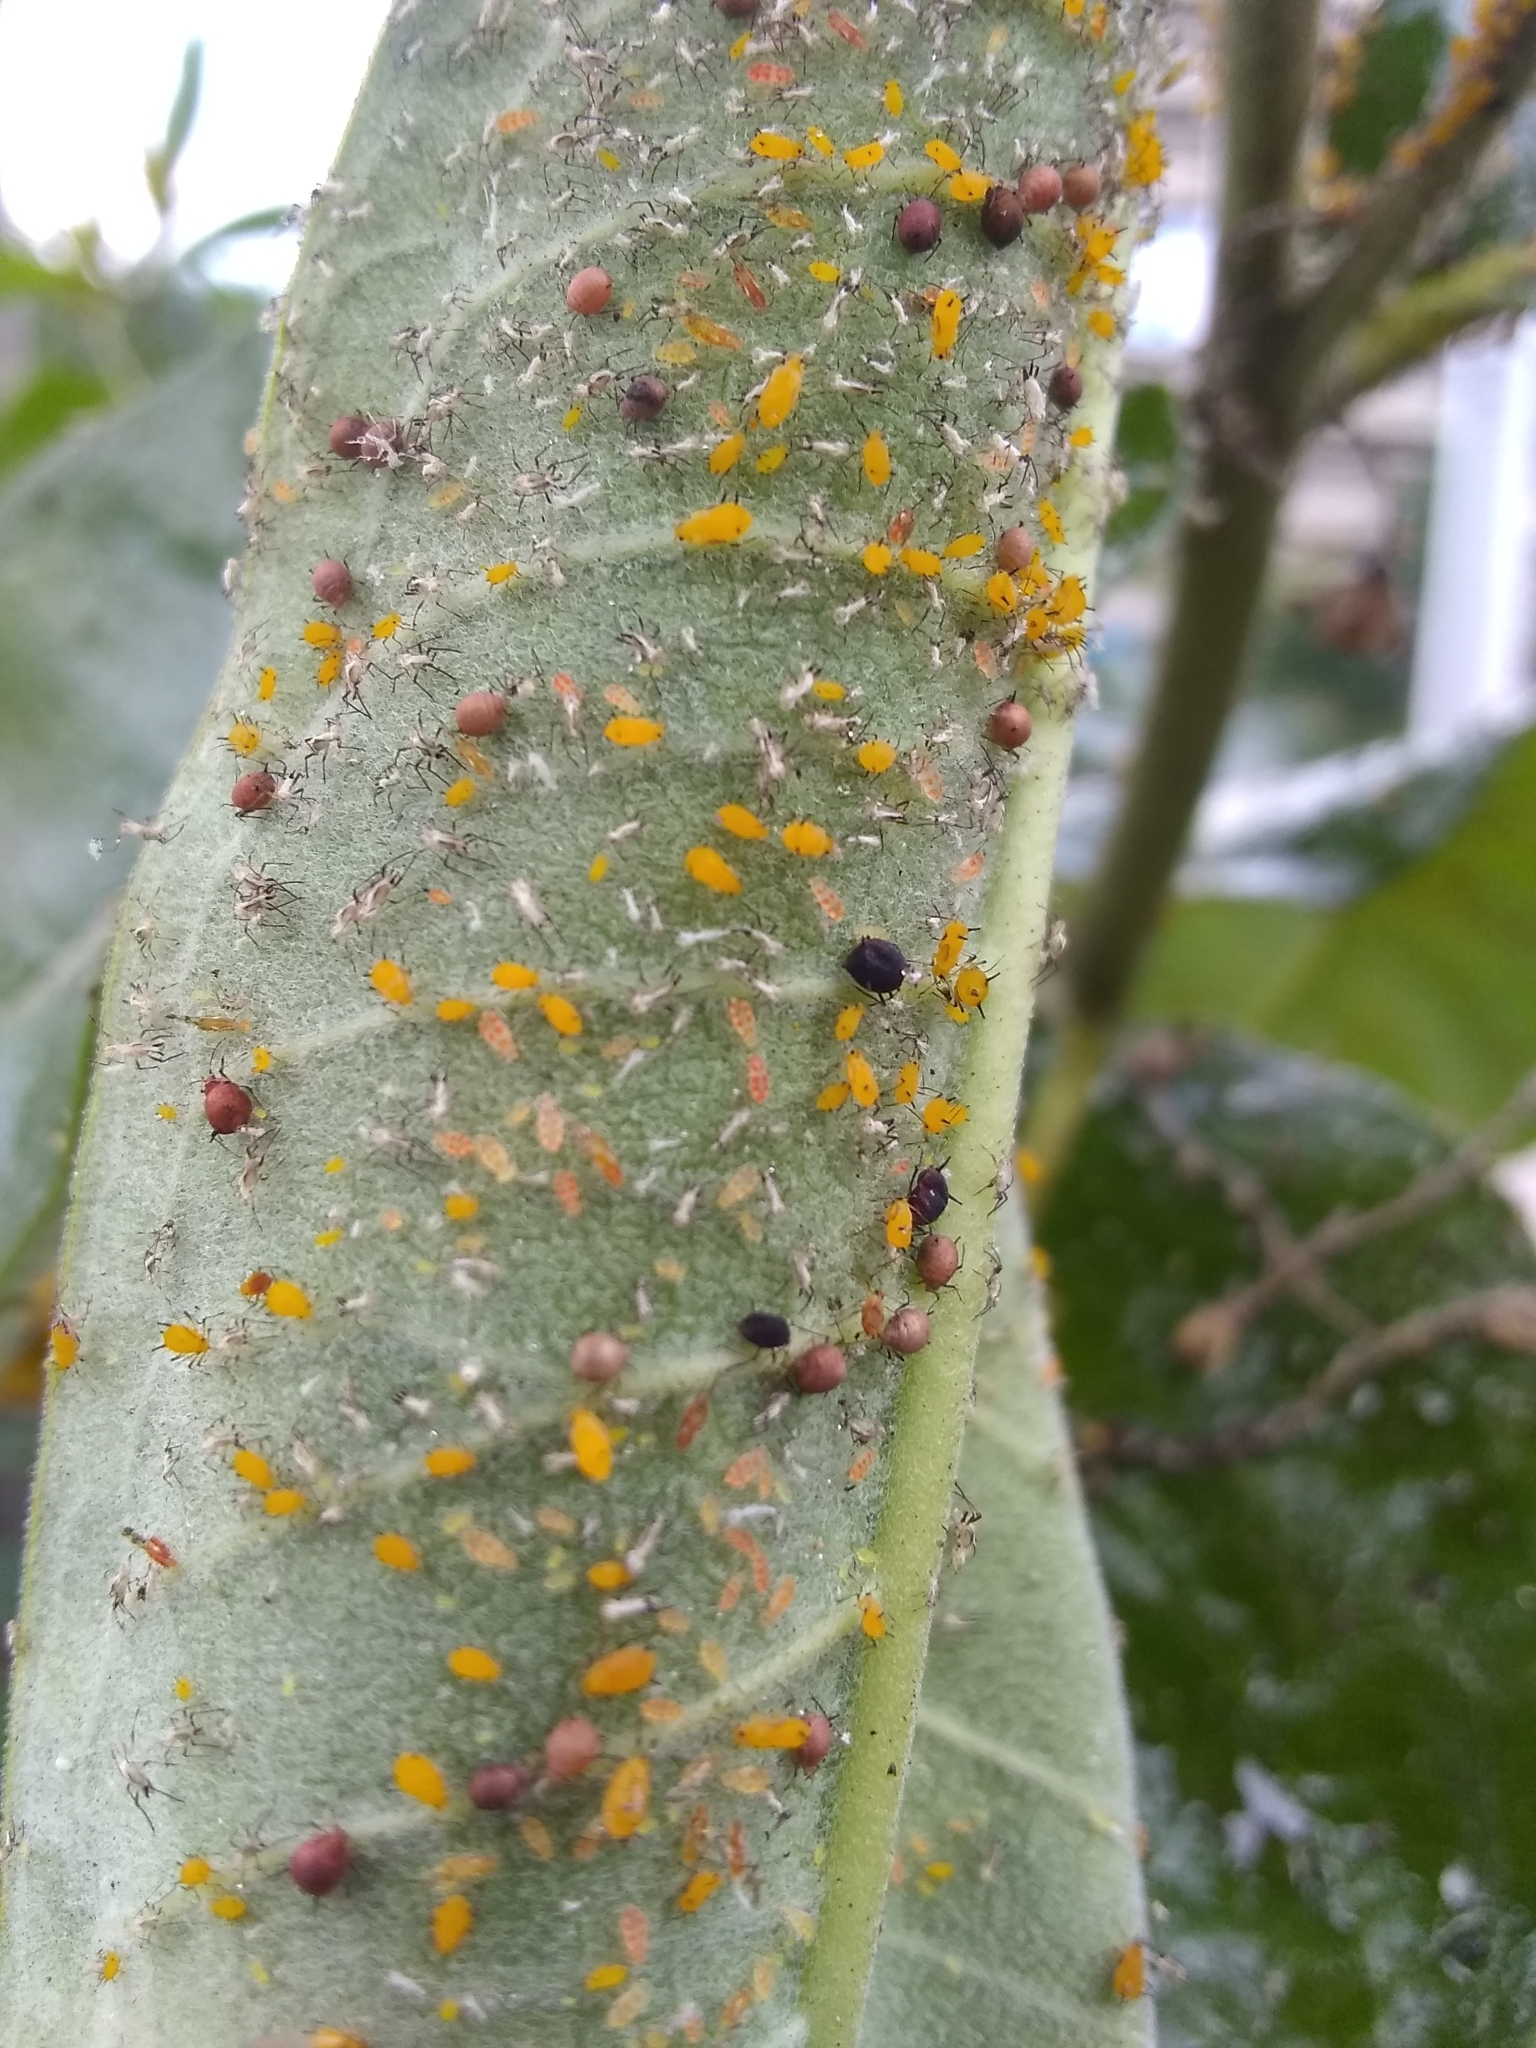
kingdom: Animalia
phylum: Arthropoda
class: Insecta
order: Hemiptera
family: Aphididae
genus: Aphis
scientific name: Aphis nerii
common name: Oleander aphid
